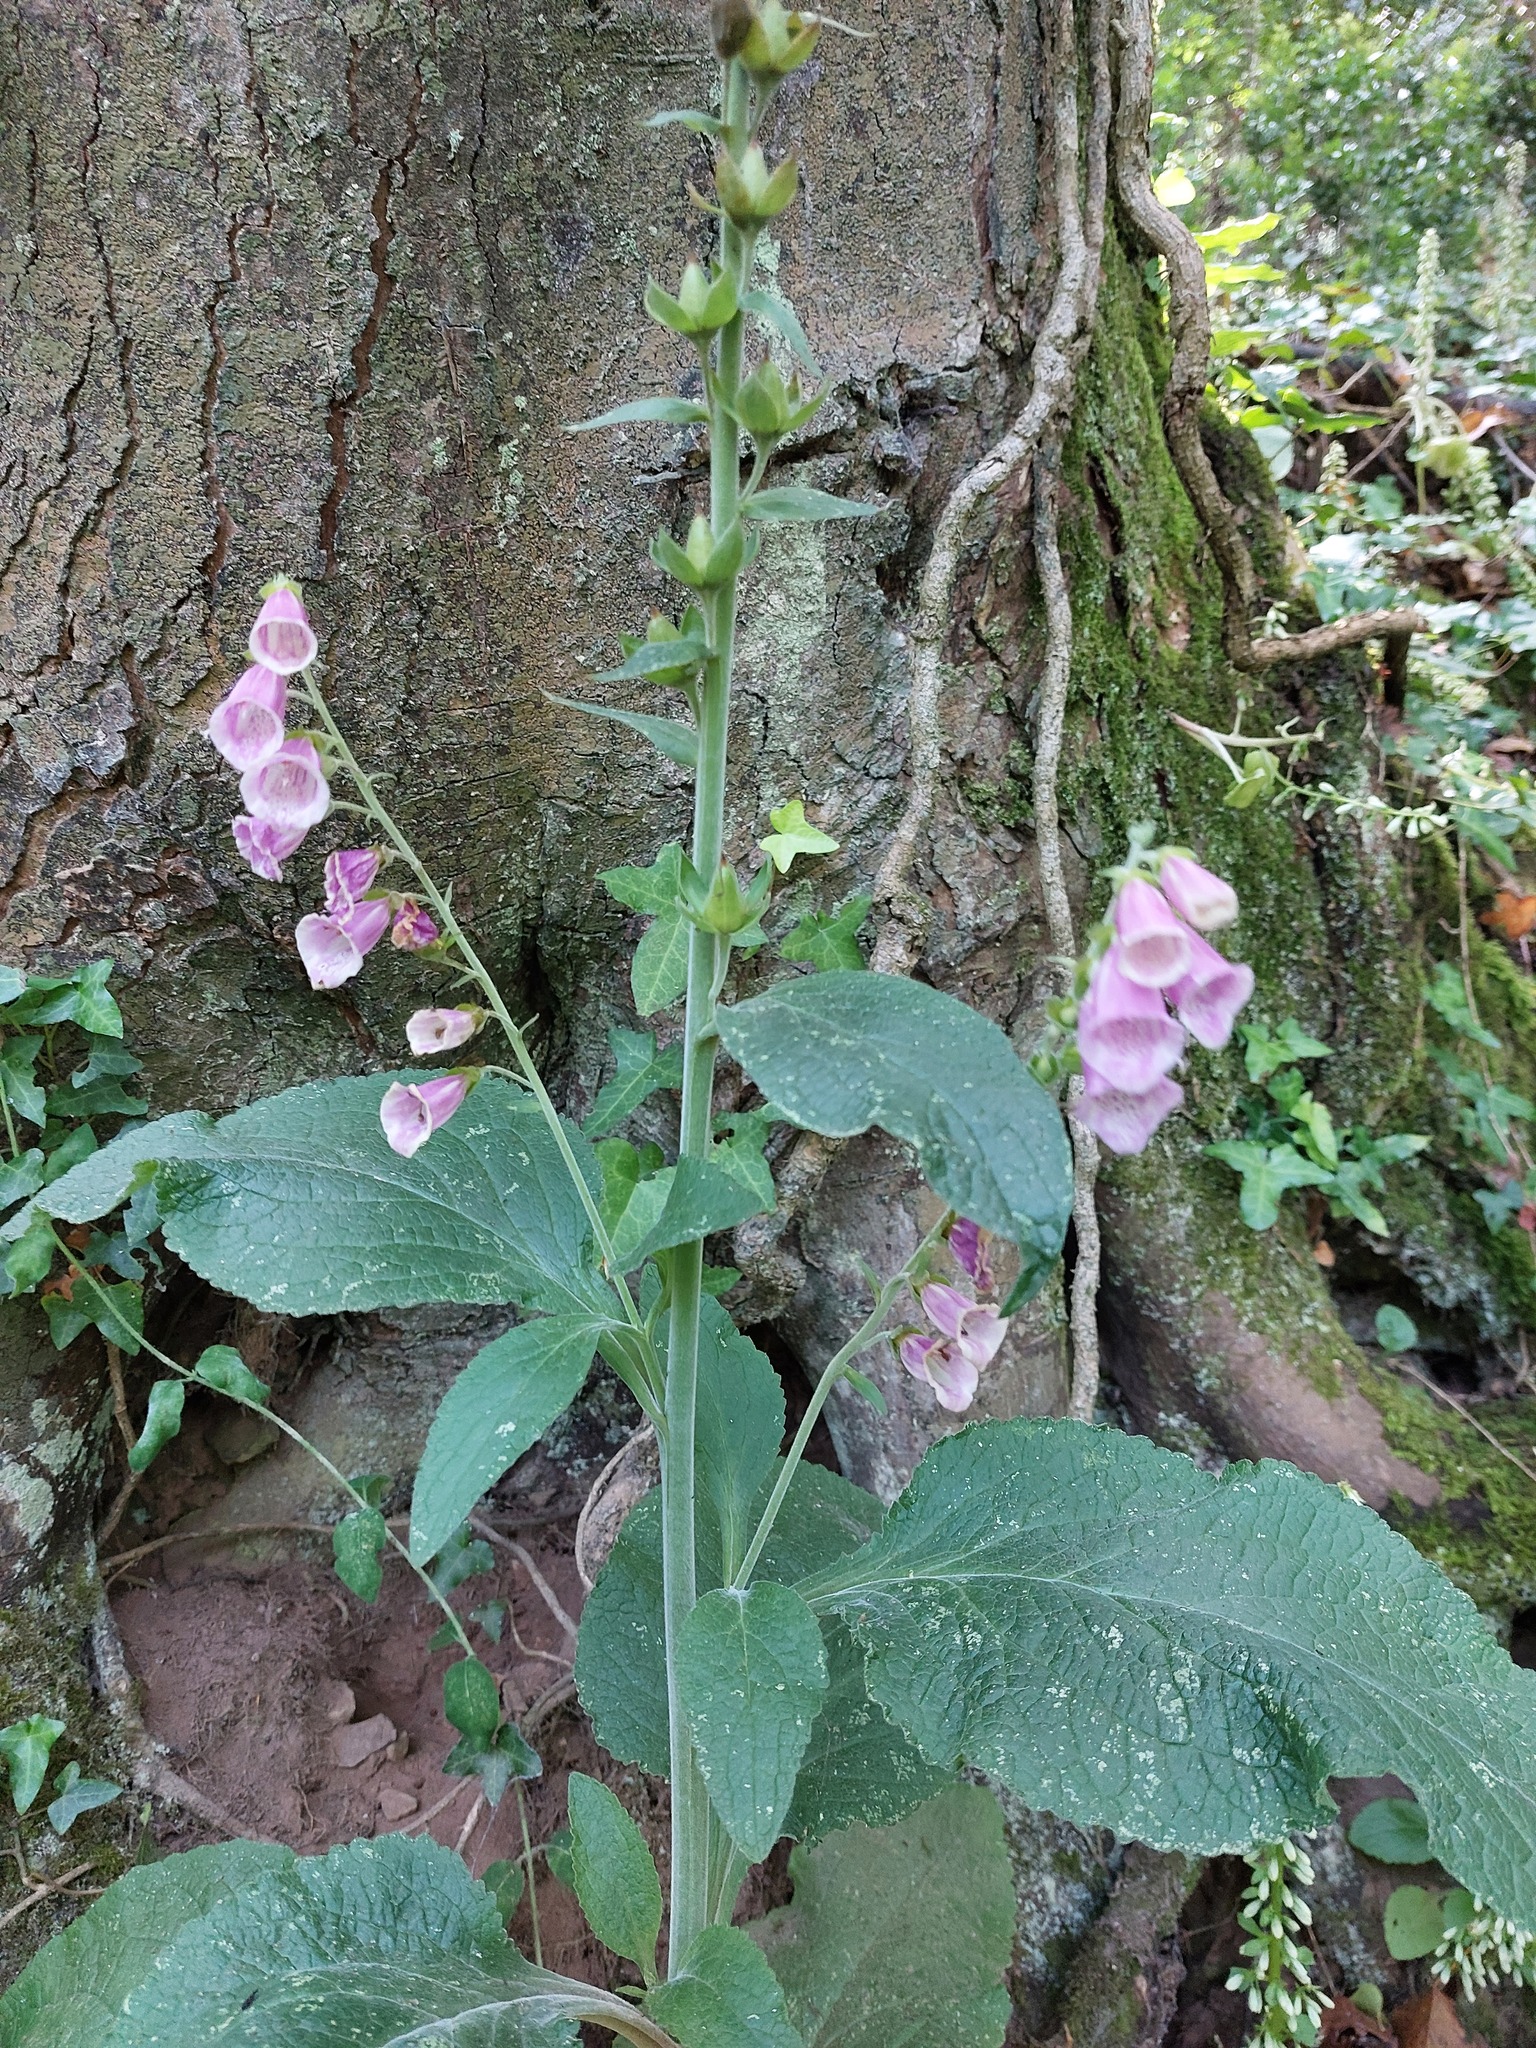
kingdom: Plantae
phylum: Tracheophyta
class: Magnoliopsida
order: Lamiales
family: Plantaginaceae
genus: Digitalis
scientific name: Digitalis purpurea
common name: Foxglove
